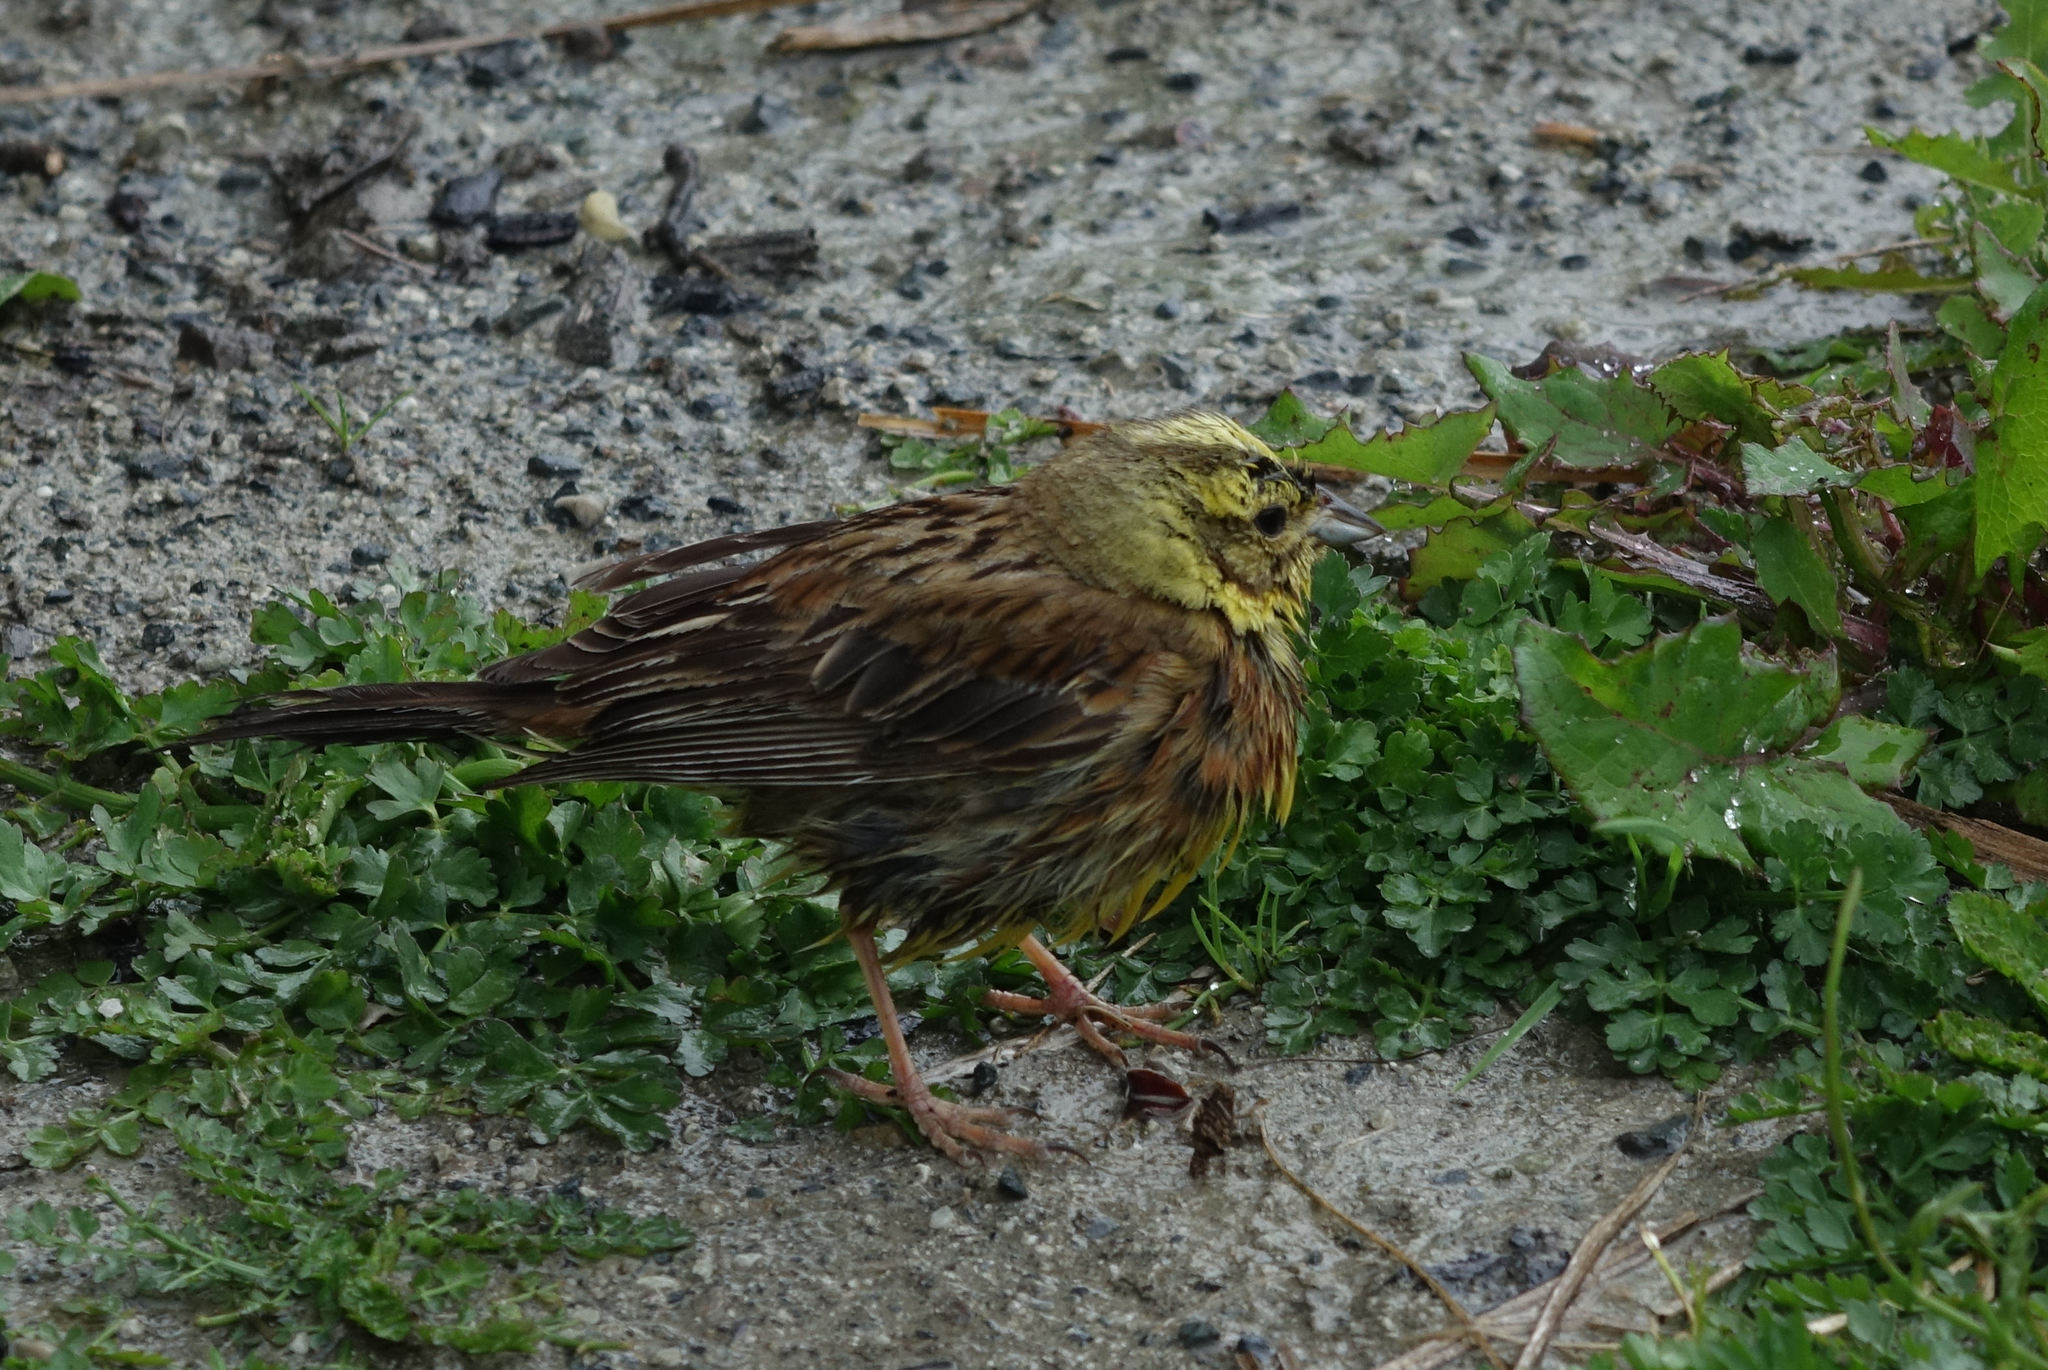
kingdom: Animalia
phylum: Chordata
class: Aves
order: Passeriformes
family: Emberizidae
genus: Emberiza
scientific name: Emberiza citrinella
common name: Yellowhammer
